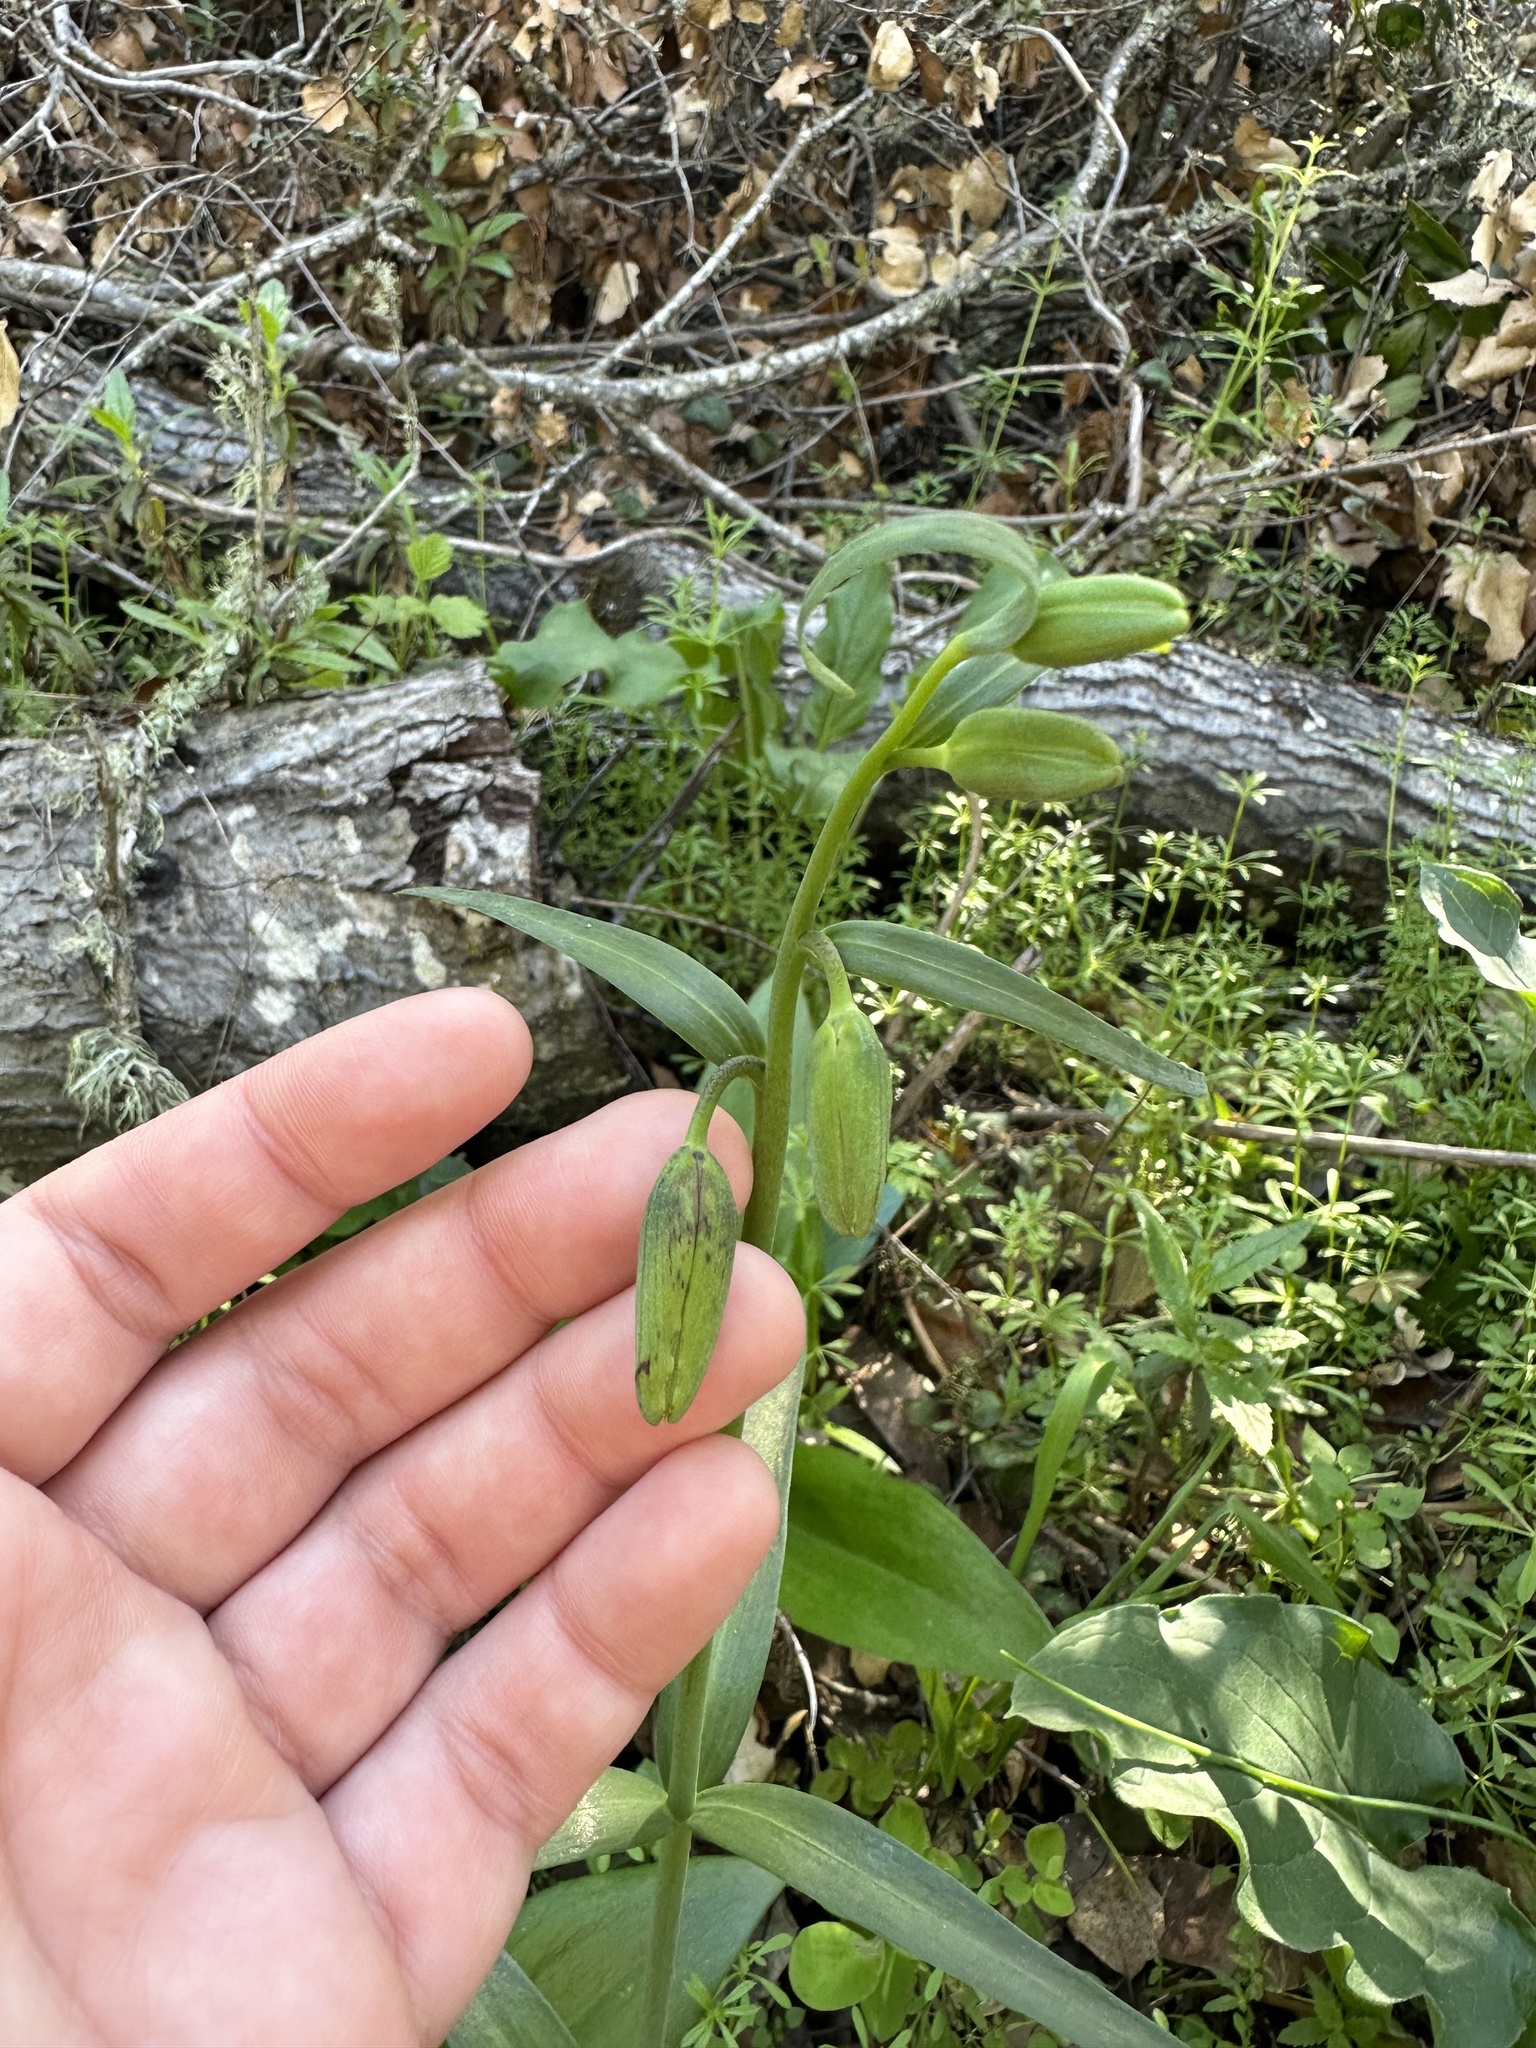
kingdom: Plantae
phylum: Tracheophyta
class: Liliopsida
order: Liliales
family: Liliaceae
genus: Fritillaria
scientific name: Fritillaria affinis
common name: Ojai fritillary
